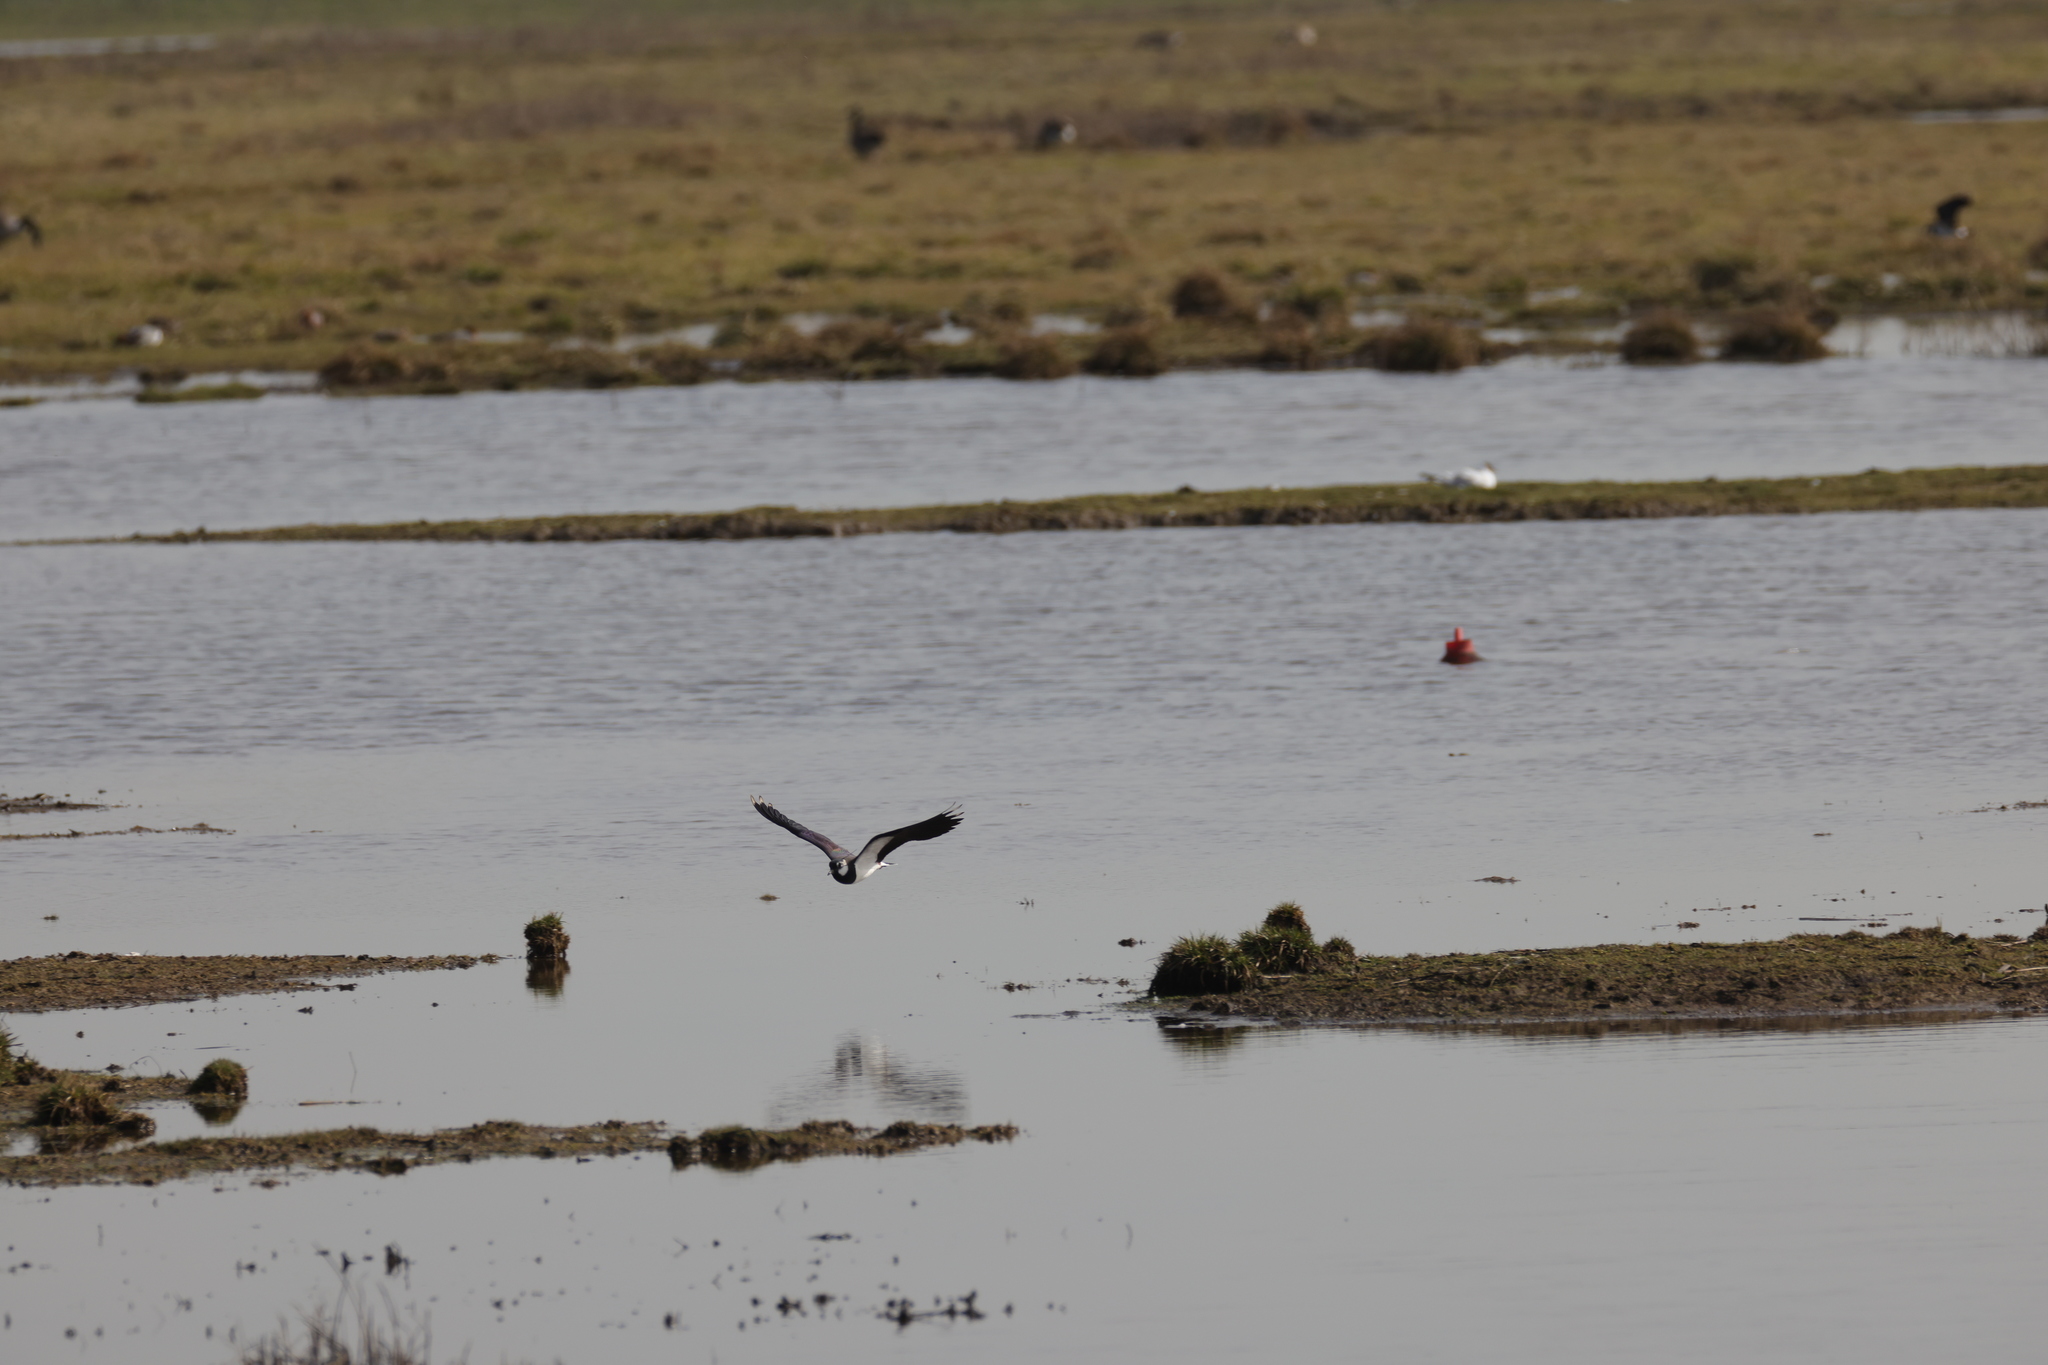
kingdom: Animalia
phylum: Chordata
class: Aves
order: Charadriiformes
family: Charadriidae
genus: Vanellus
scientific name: Vanellus vanellus
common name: Northern lapwing
